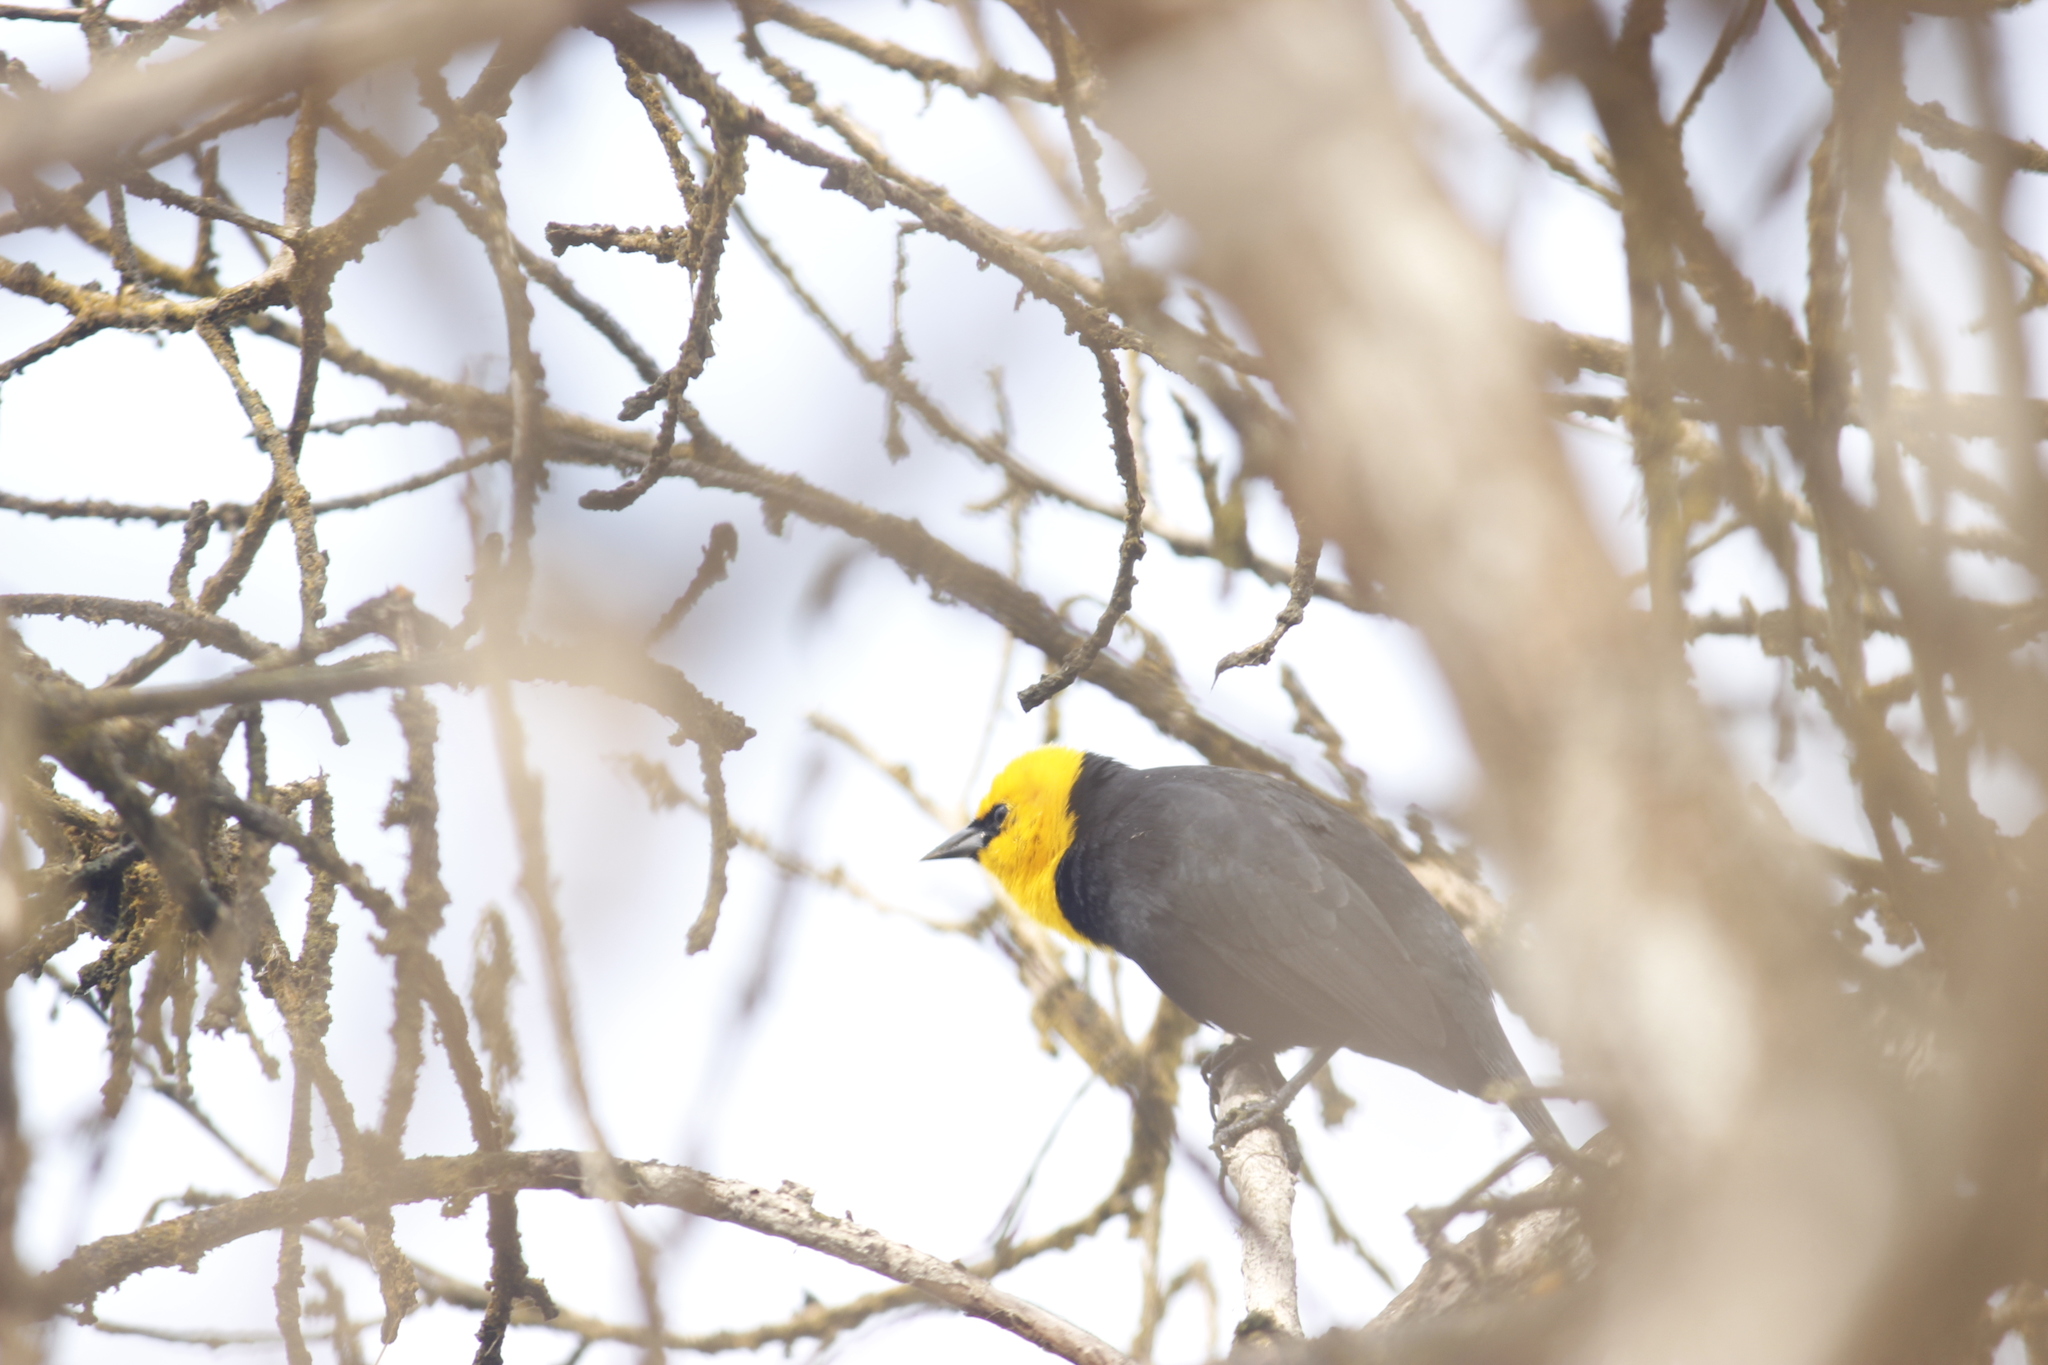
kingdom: Animalia
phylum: Chordata
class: Aves
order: Passeriformes
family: Icteridae
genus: Chrysomus
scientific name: Chrysomus icterocephalus
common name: Yellow-hooded blackbird
